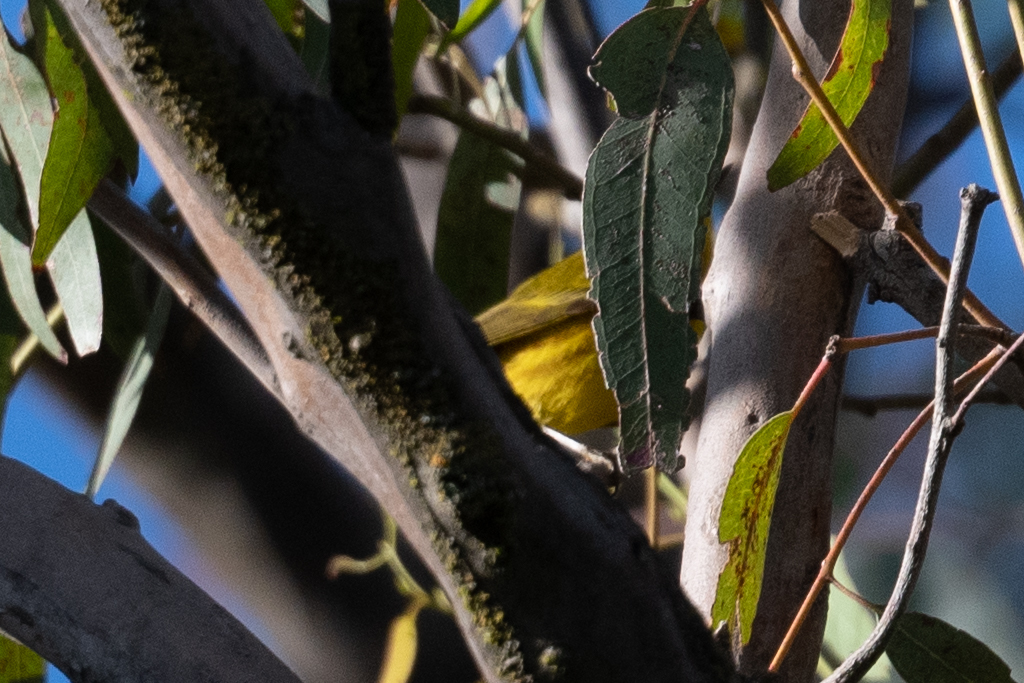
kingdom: Animalia
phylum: Chordata
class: Aves
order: Passeriformes
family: Parulidae
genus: Setophaga
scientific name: Setophaga petechia
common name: Yellow warbler
